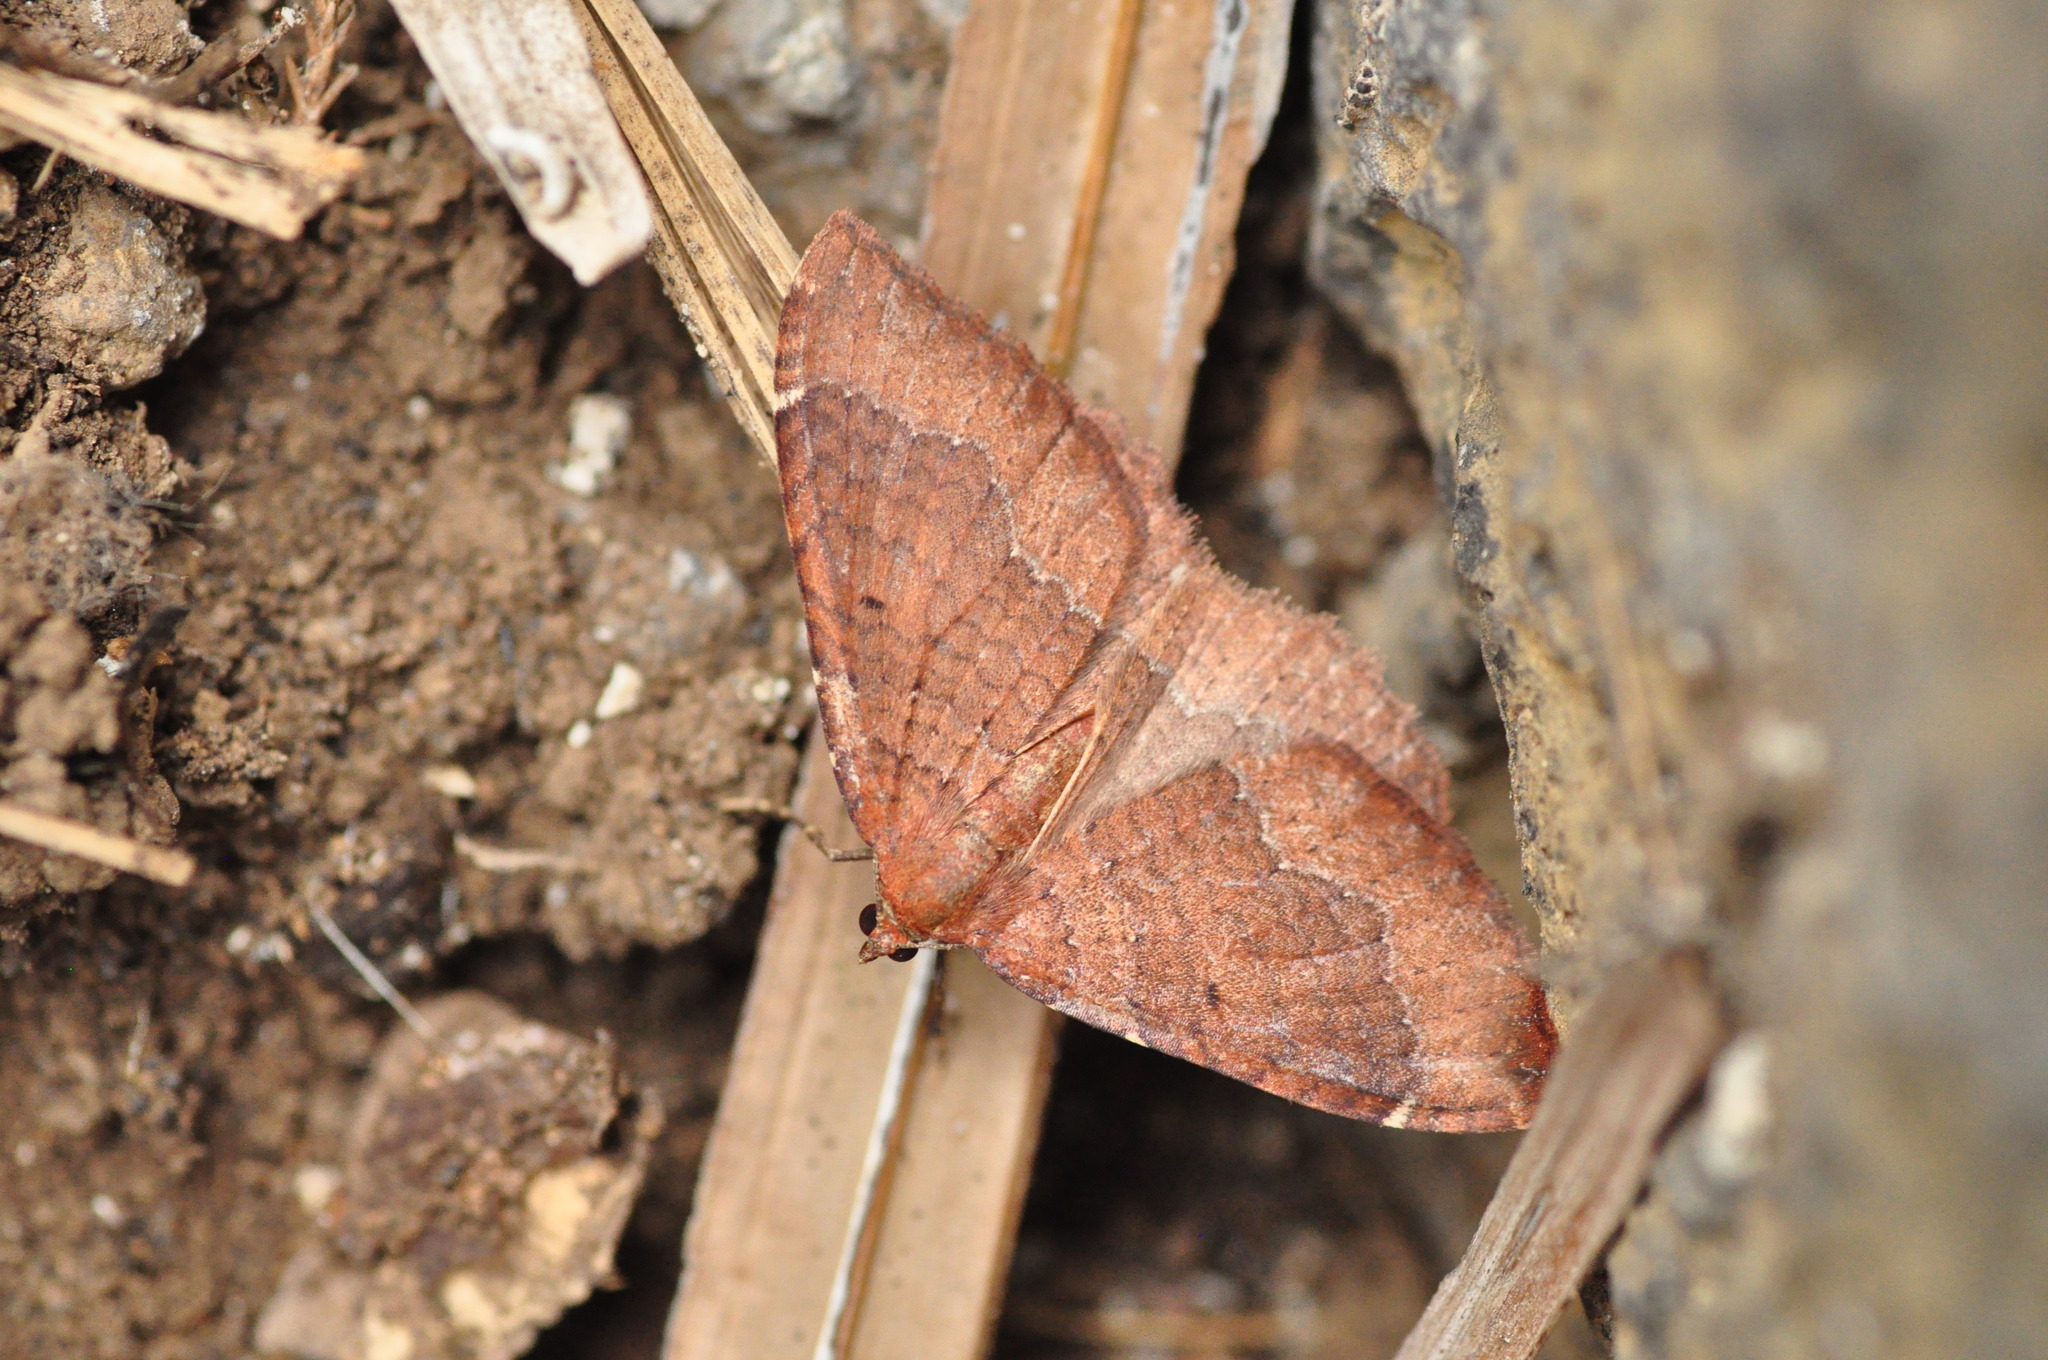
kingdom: Animalia
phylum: Arthropoda
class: Insecta
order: Lepidoptera
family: Geometridae
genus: Herbulotina
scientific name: Herbulotina grandis
